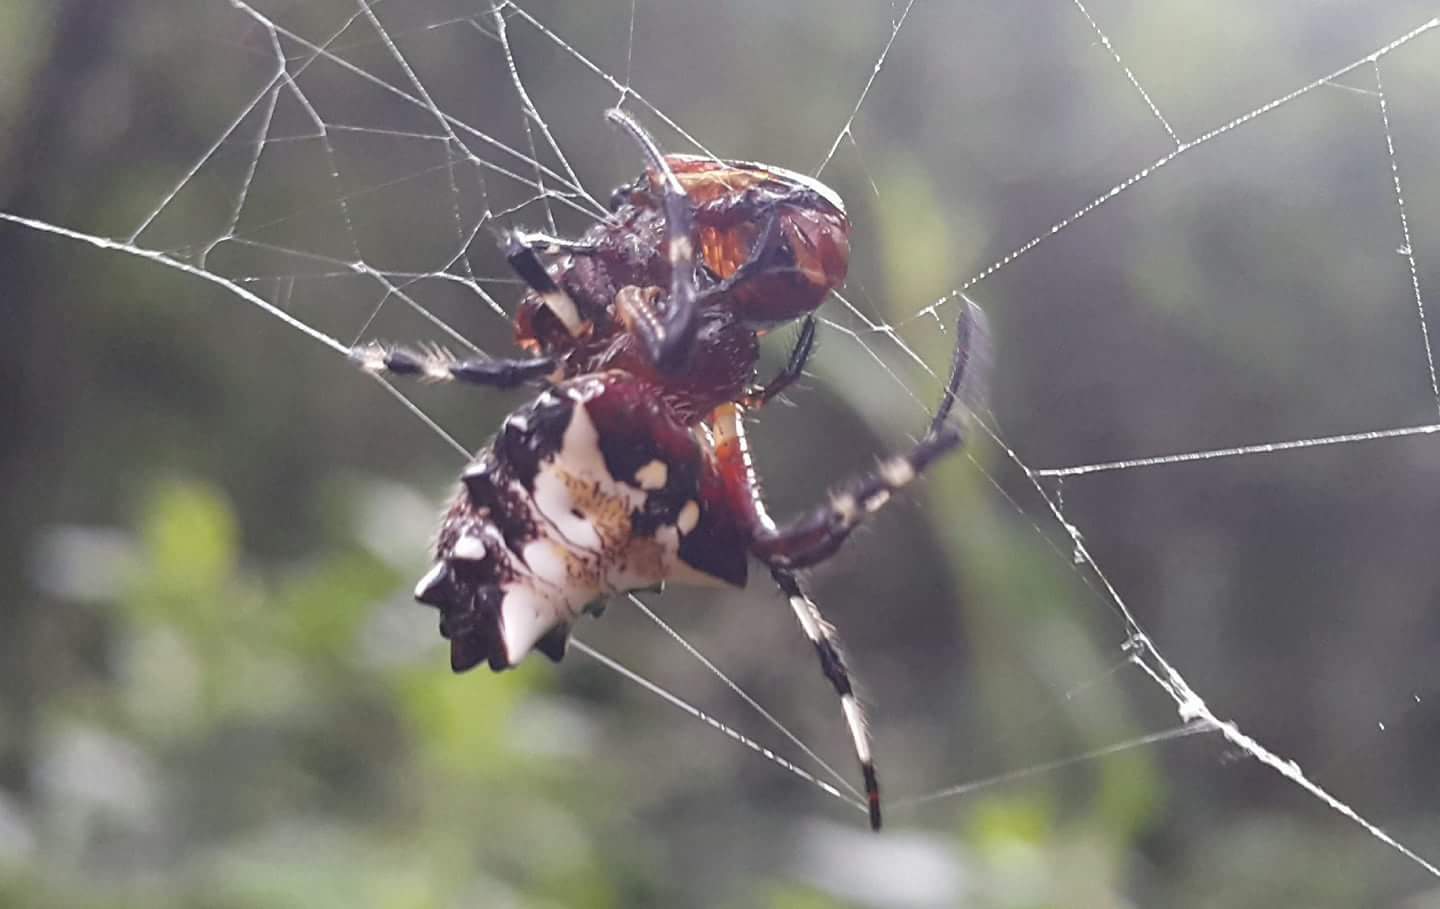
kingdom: Animalia
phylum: Arthropoda
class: Arachnida
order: Araneae
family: Araneidae
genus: Verrucosa
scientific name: Verrucosa arenata
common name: Orb weavers
